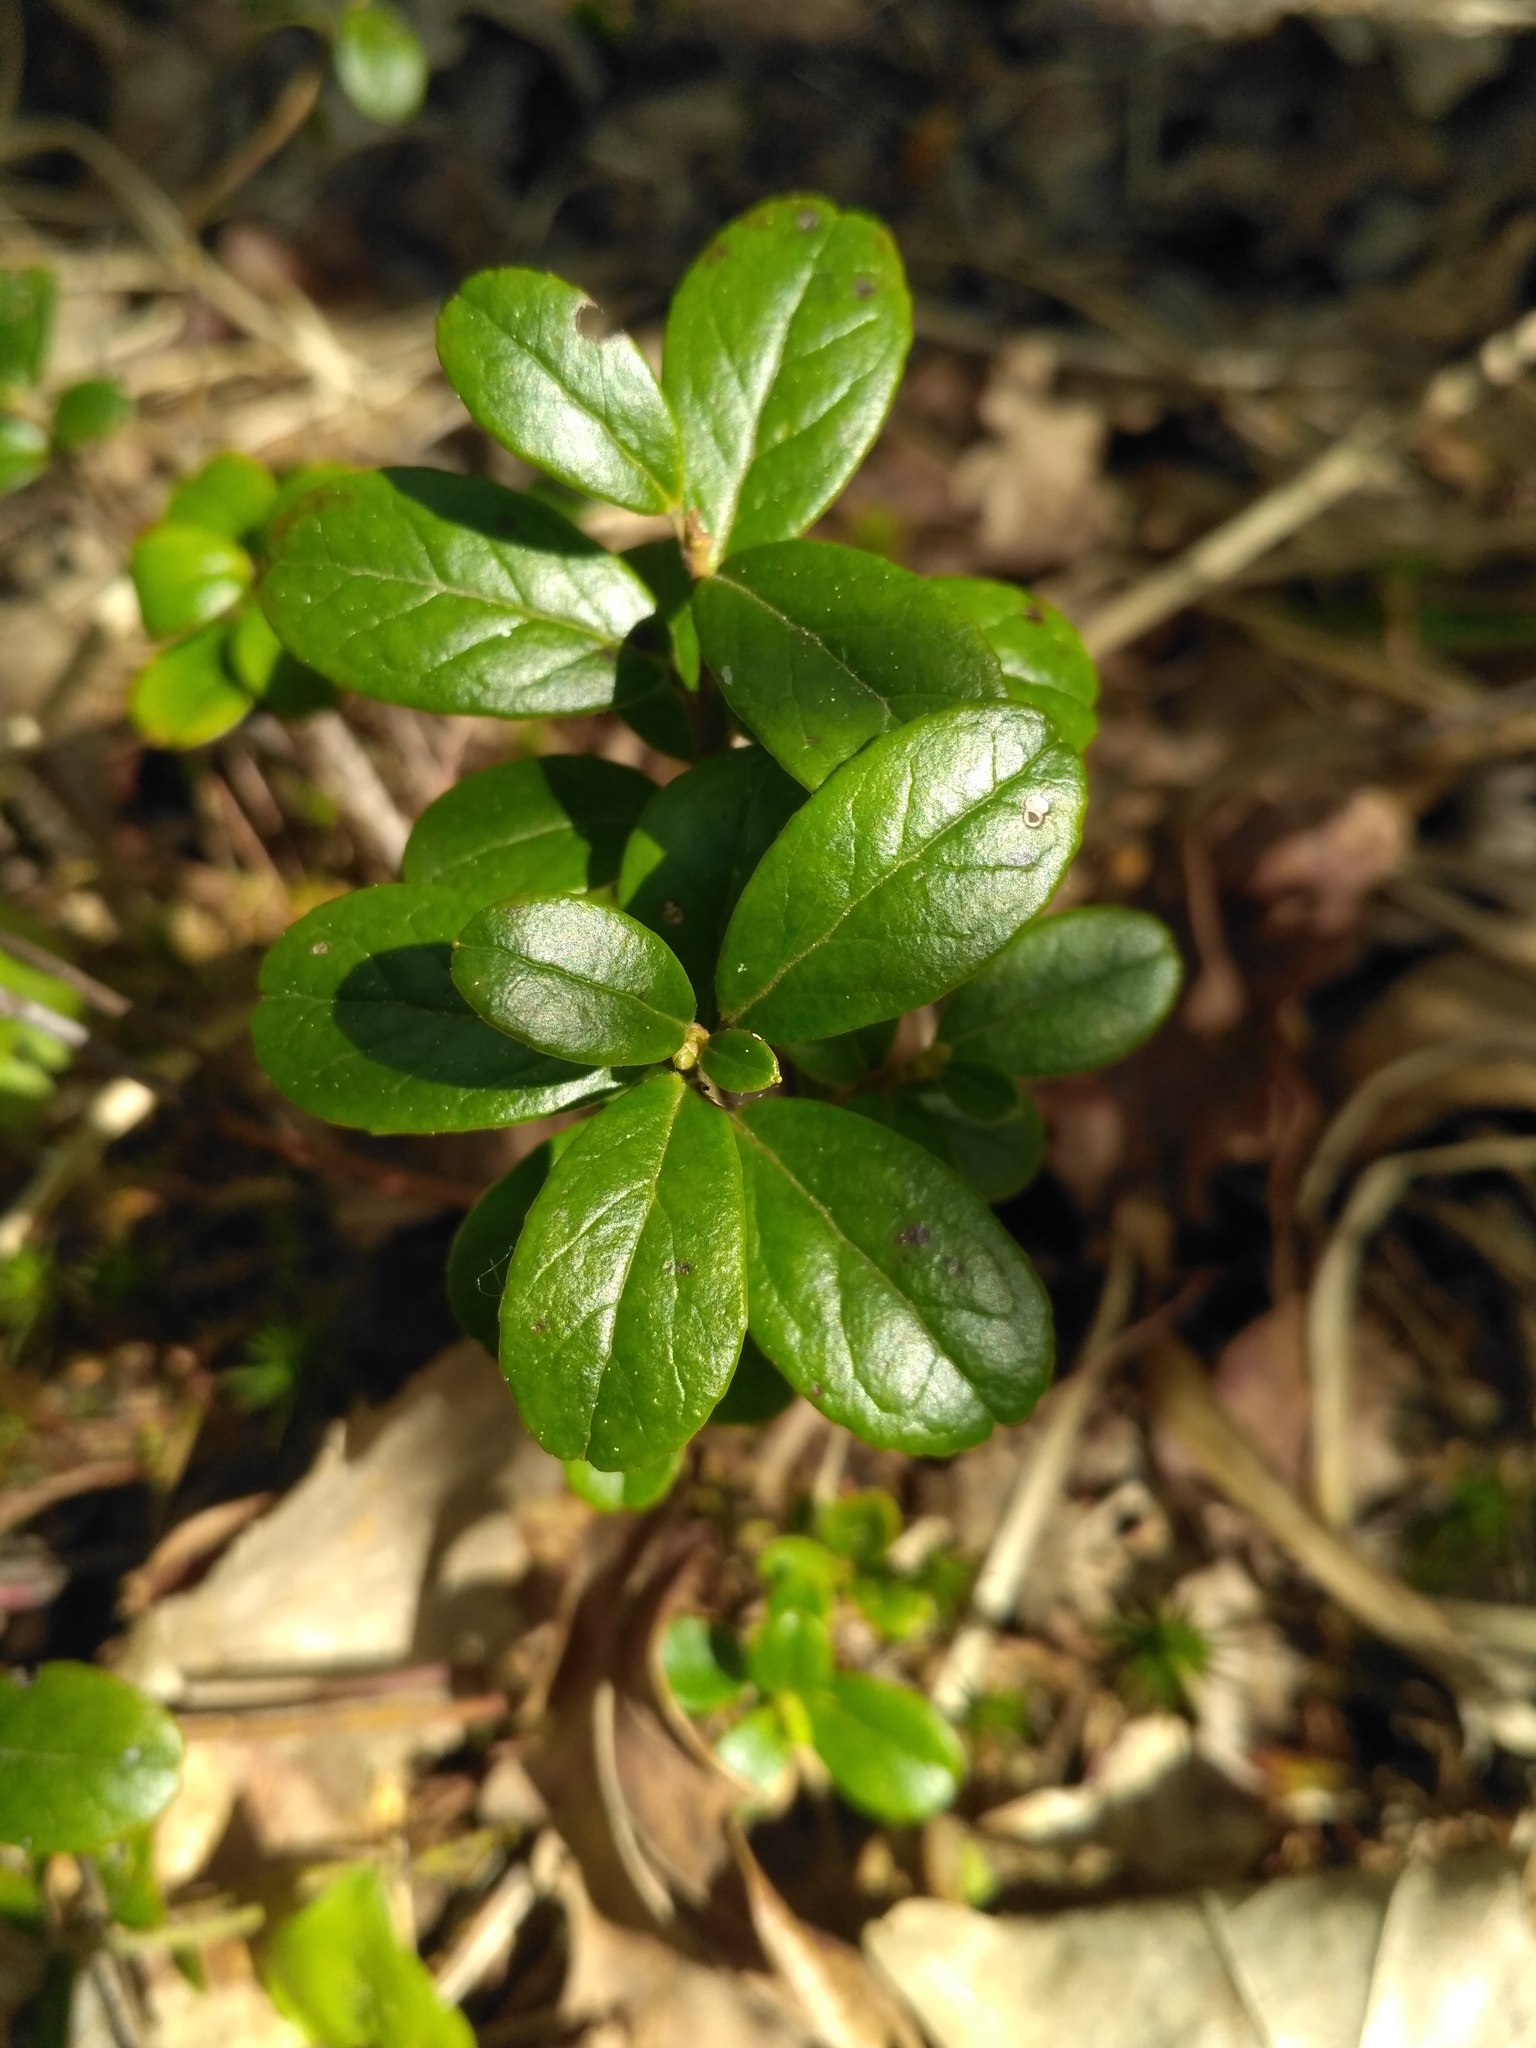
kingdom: Plantae
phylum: Tracheophyta
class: Magnoliopsida
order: Ericales
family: Ericaceae
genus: Vaccinium
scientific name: Vaccinium vitis-idaea
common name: Cowberry
